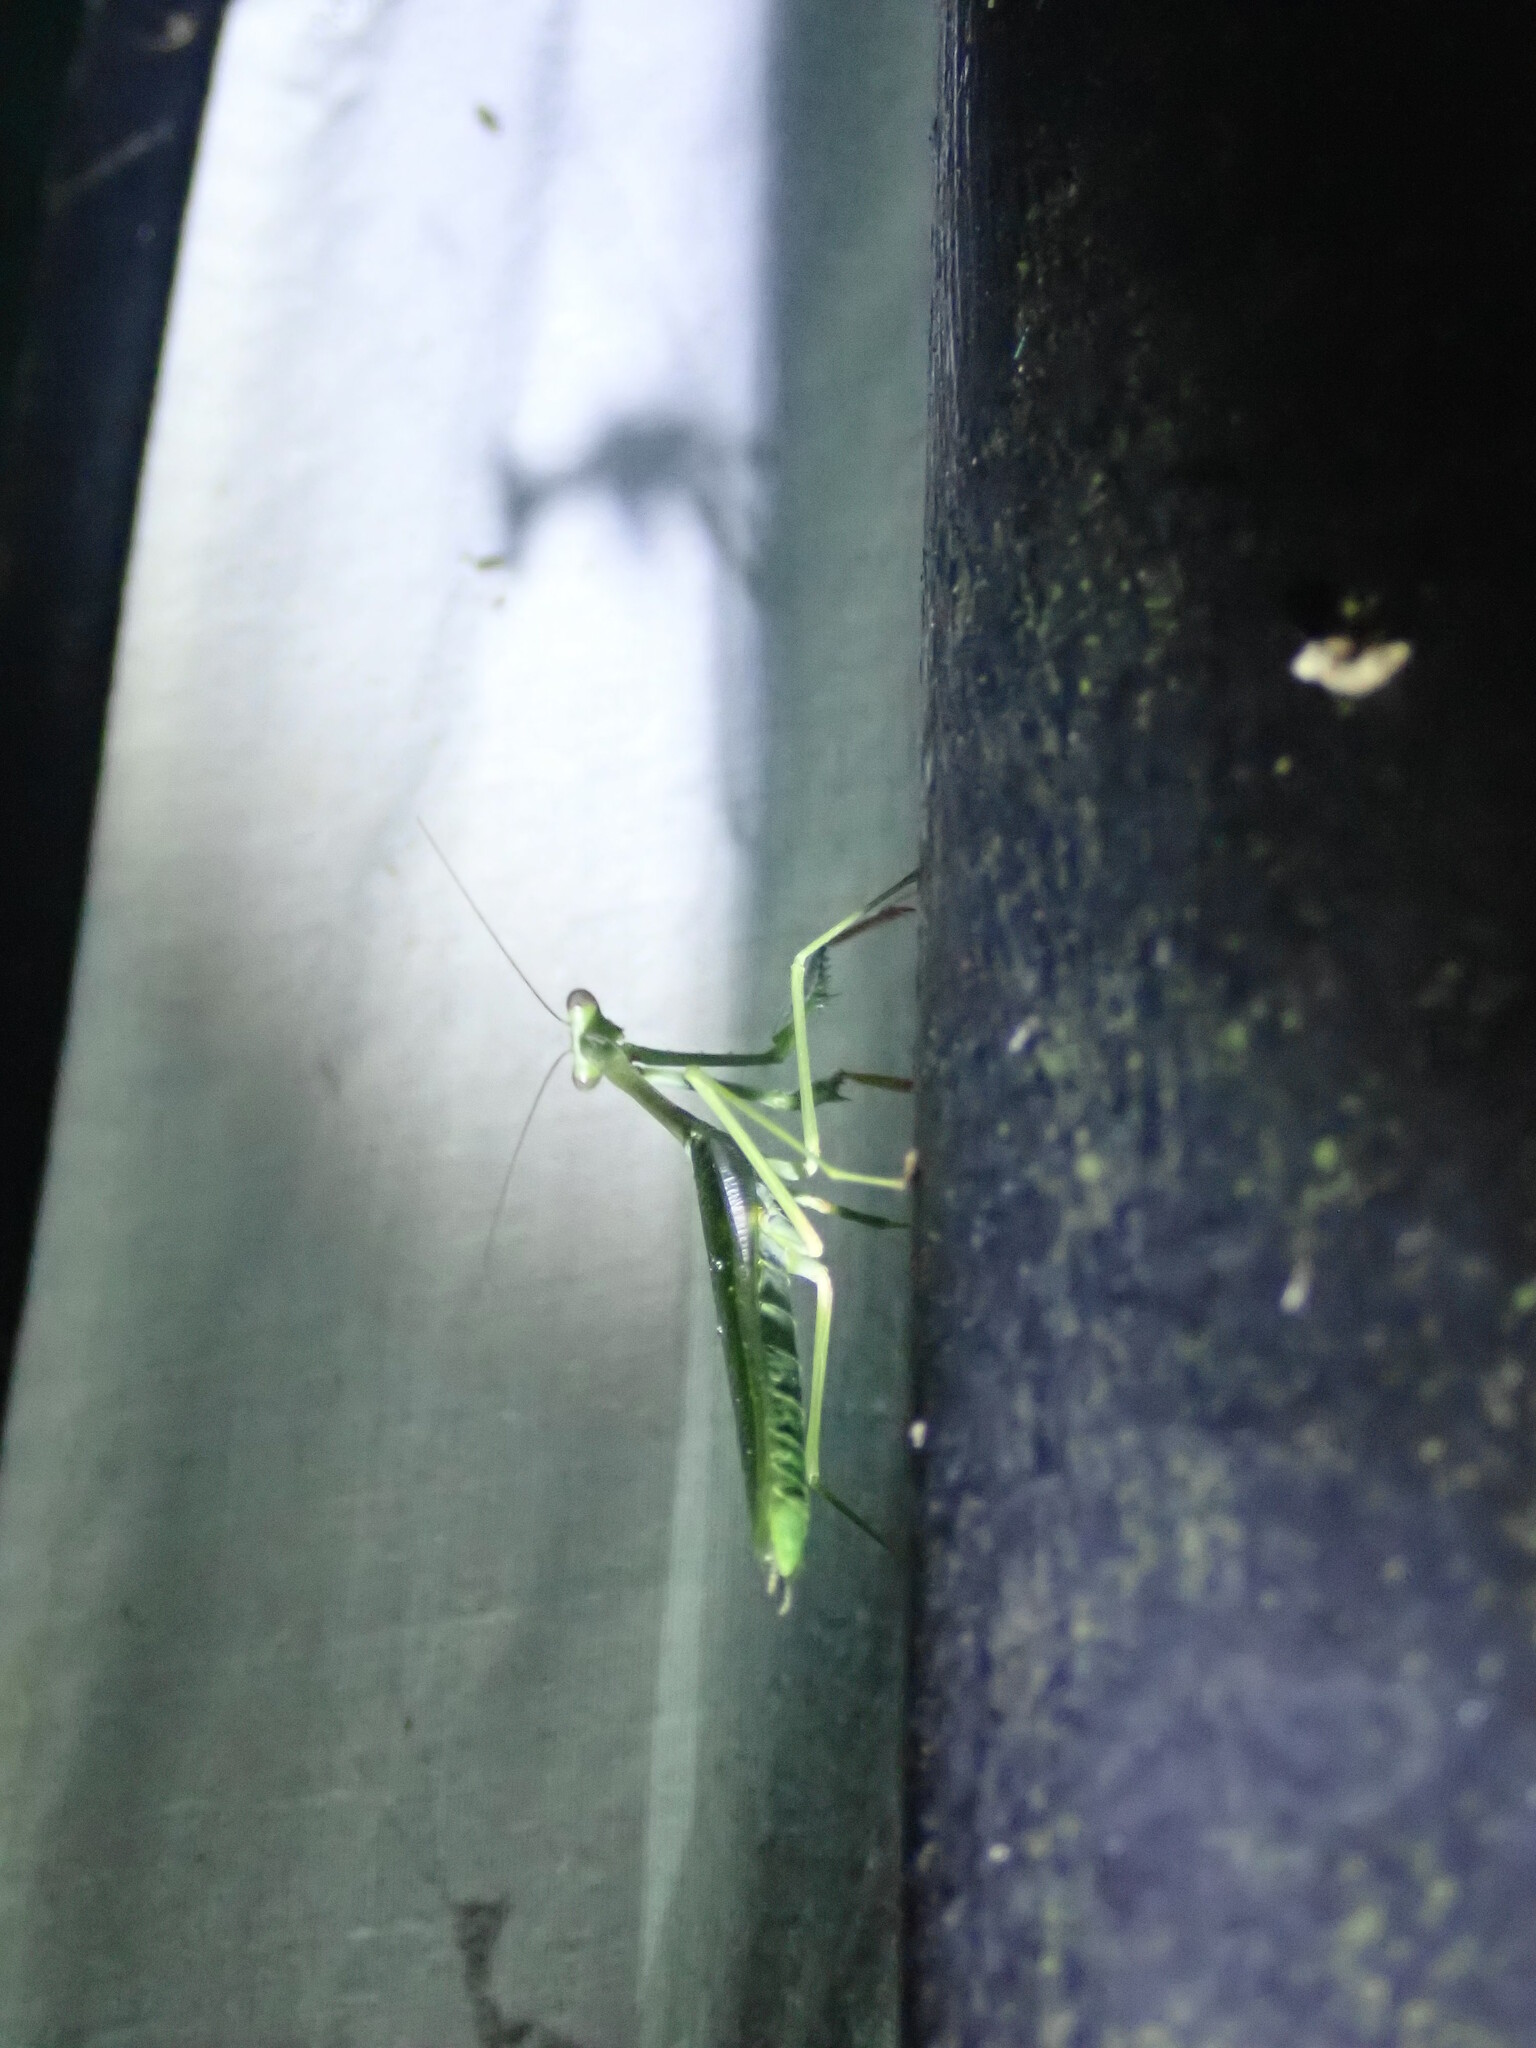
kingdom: Animalia
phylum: Arthropoda
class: Insecta
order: Mantodea
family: Mantidae
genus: Stagmomantis
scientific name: Stagmomantis theophila
